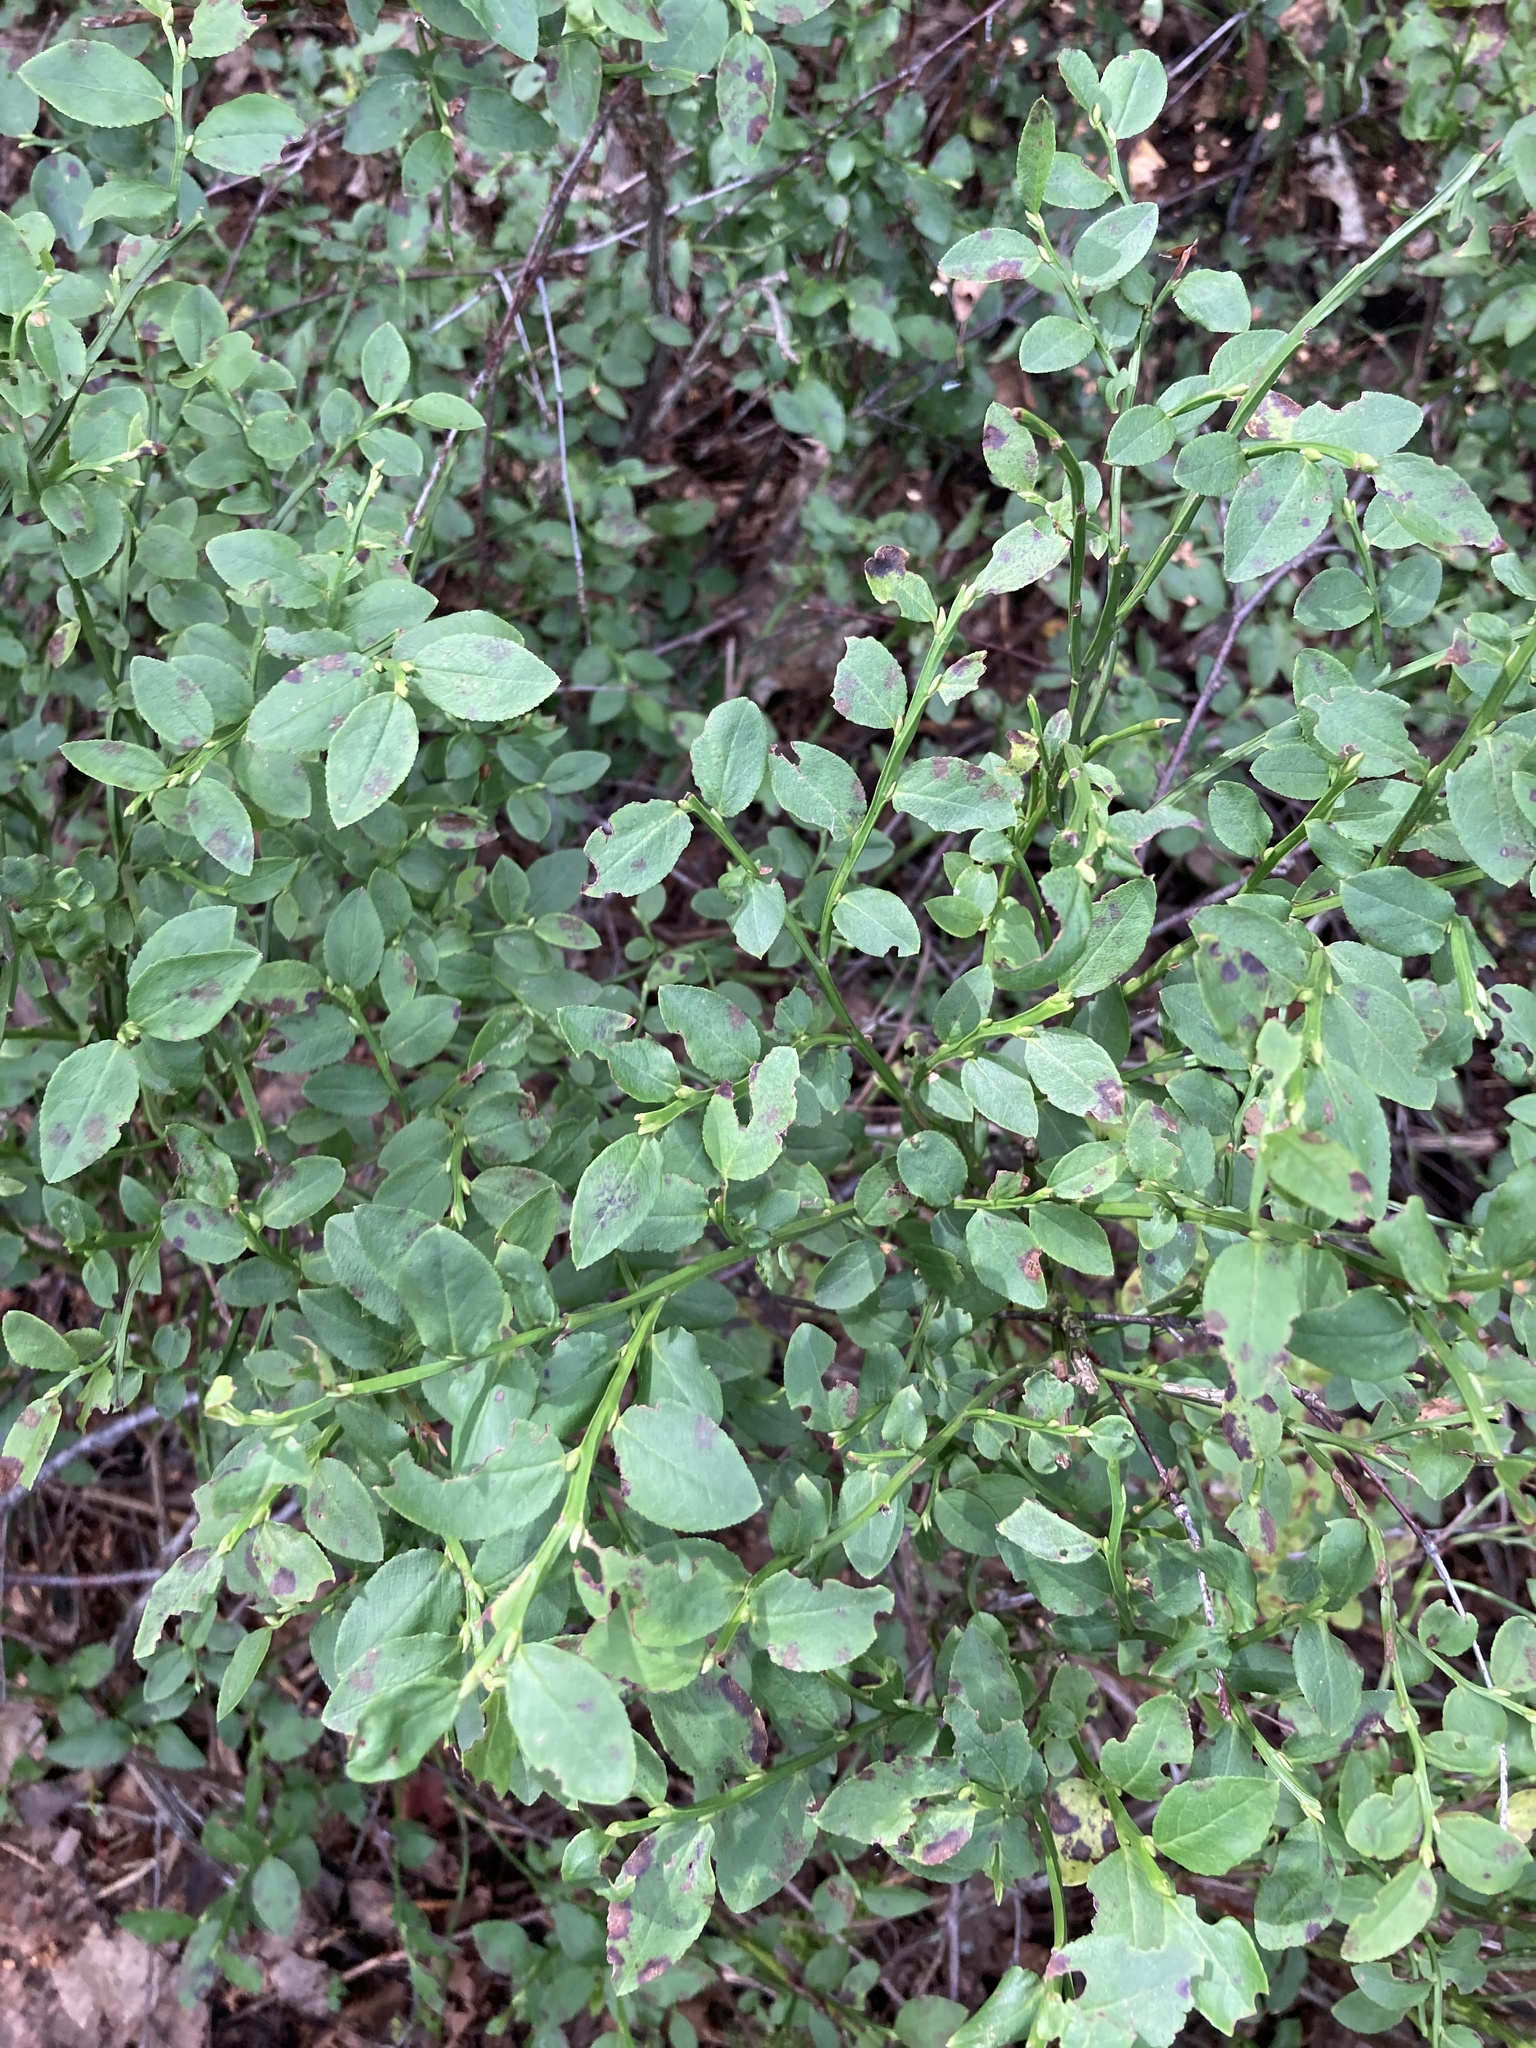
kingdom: Plantae
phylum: Tracheophyta
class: Magnoliopsida
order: Ericales
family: Ericaceae
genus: Vaccinium
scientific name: Vaccinium myrtillus
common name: Bilberry
